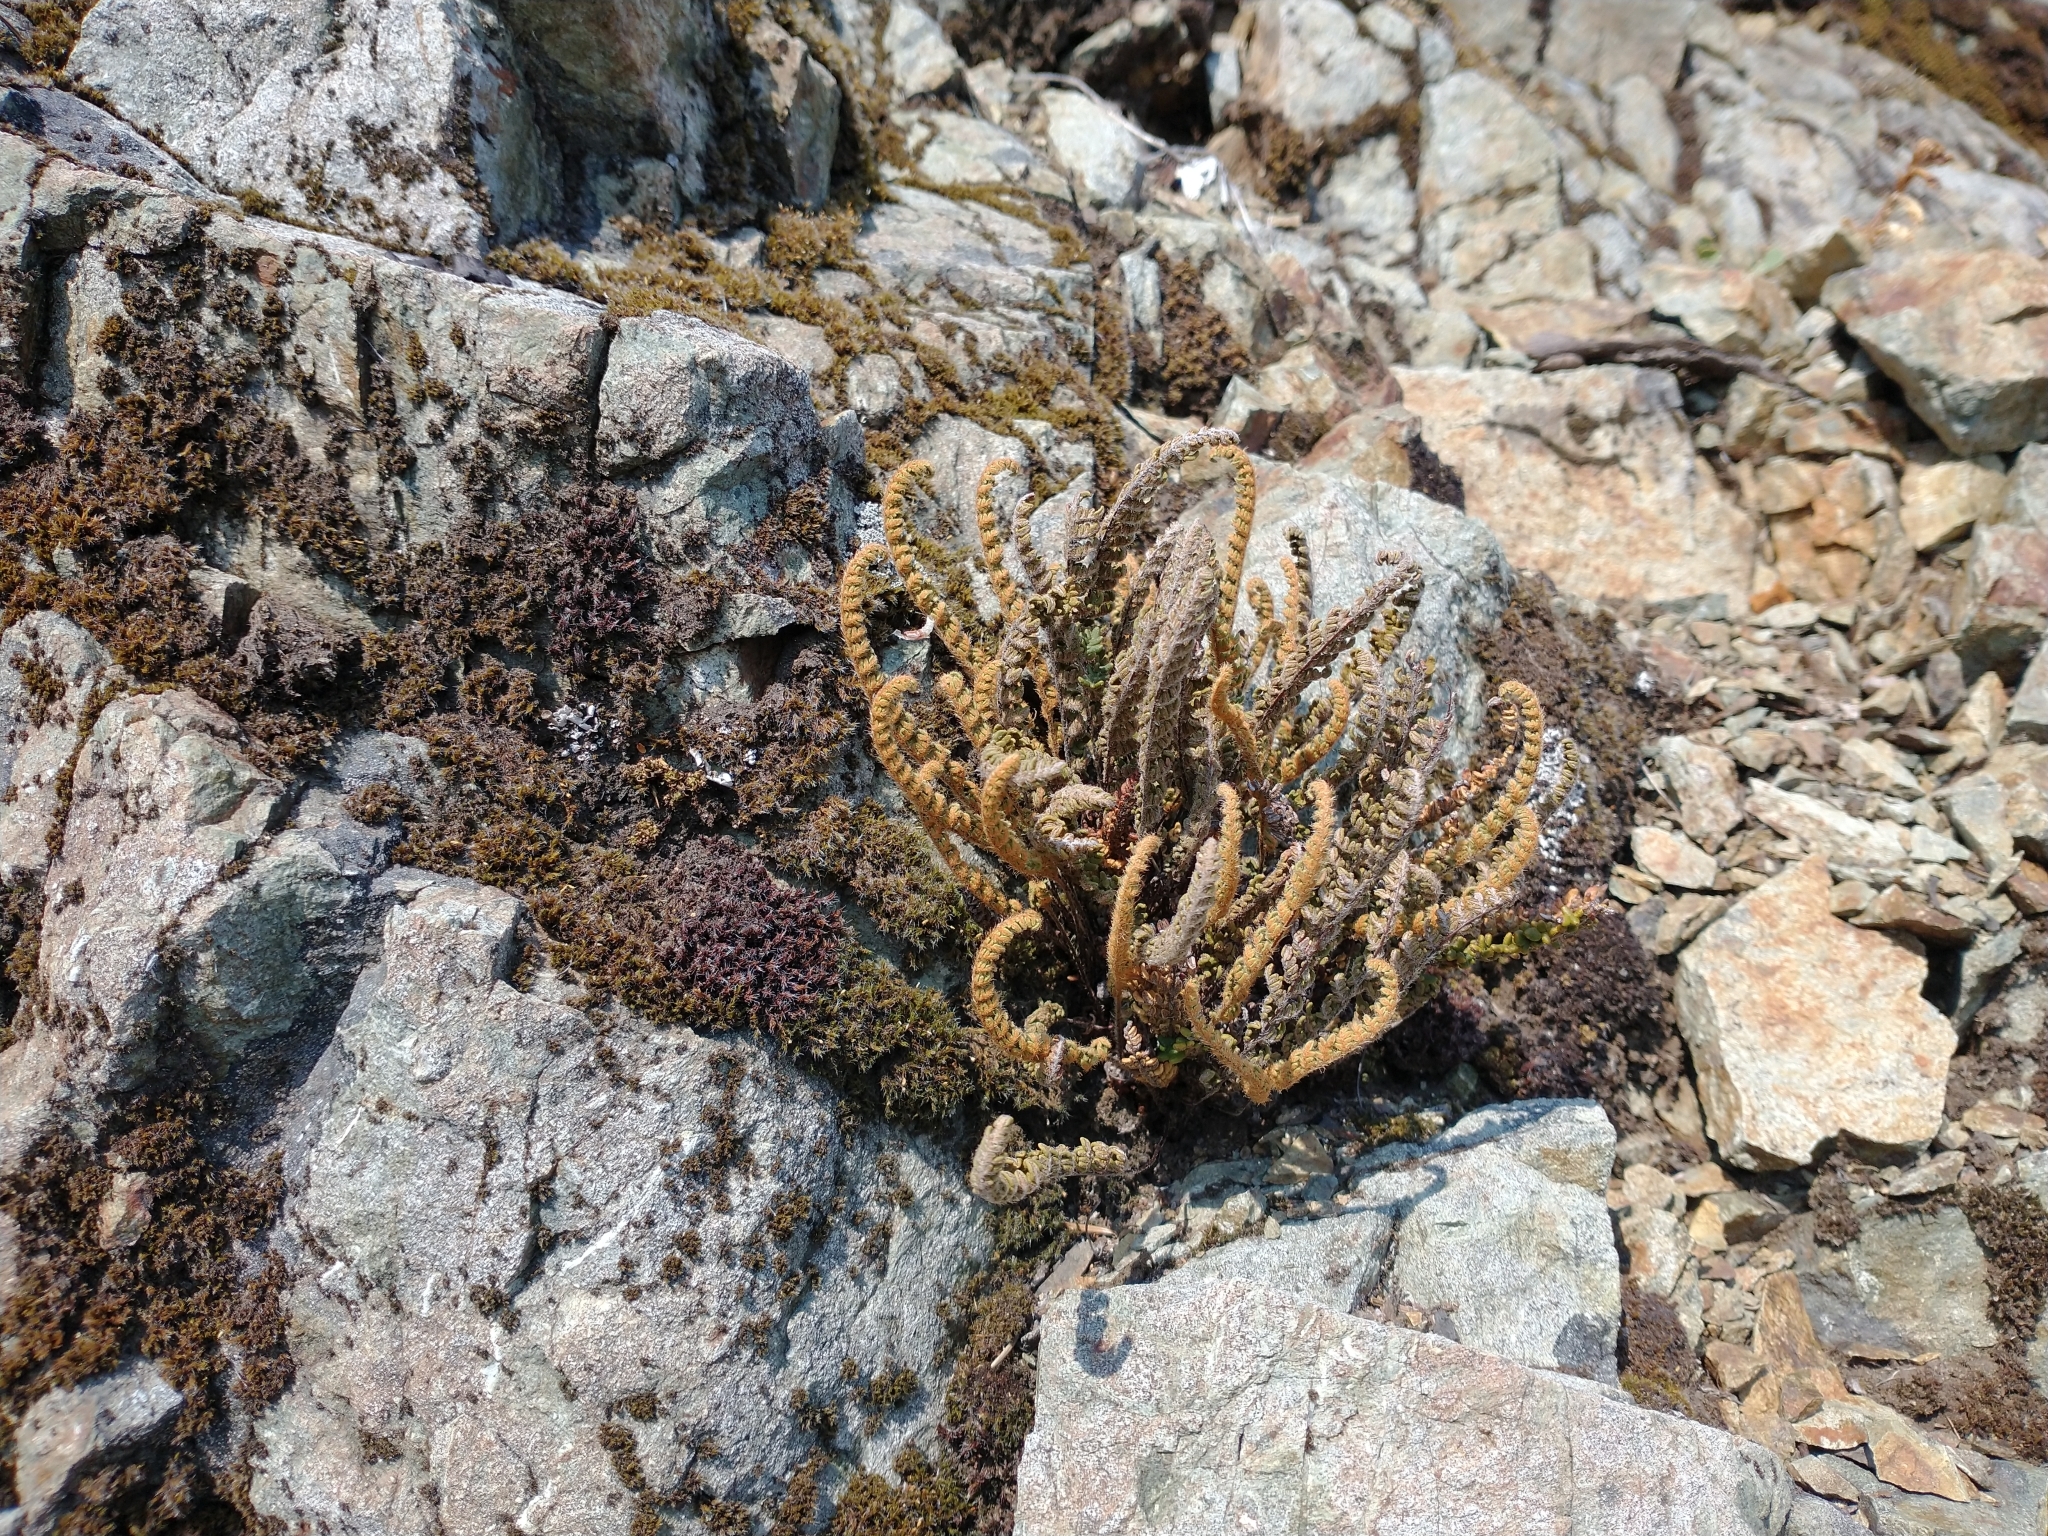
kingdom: Plantae
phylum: Tracheophyta
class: Polypodiopsida
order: Polypodiales
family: Pteridaceae
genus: Myriopteris
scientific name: Myriopteris gracillima
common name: Lace fern
